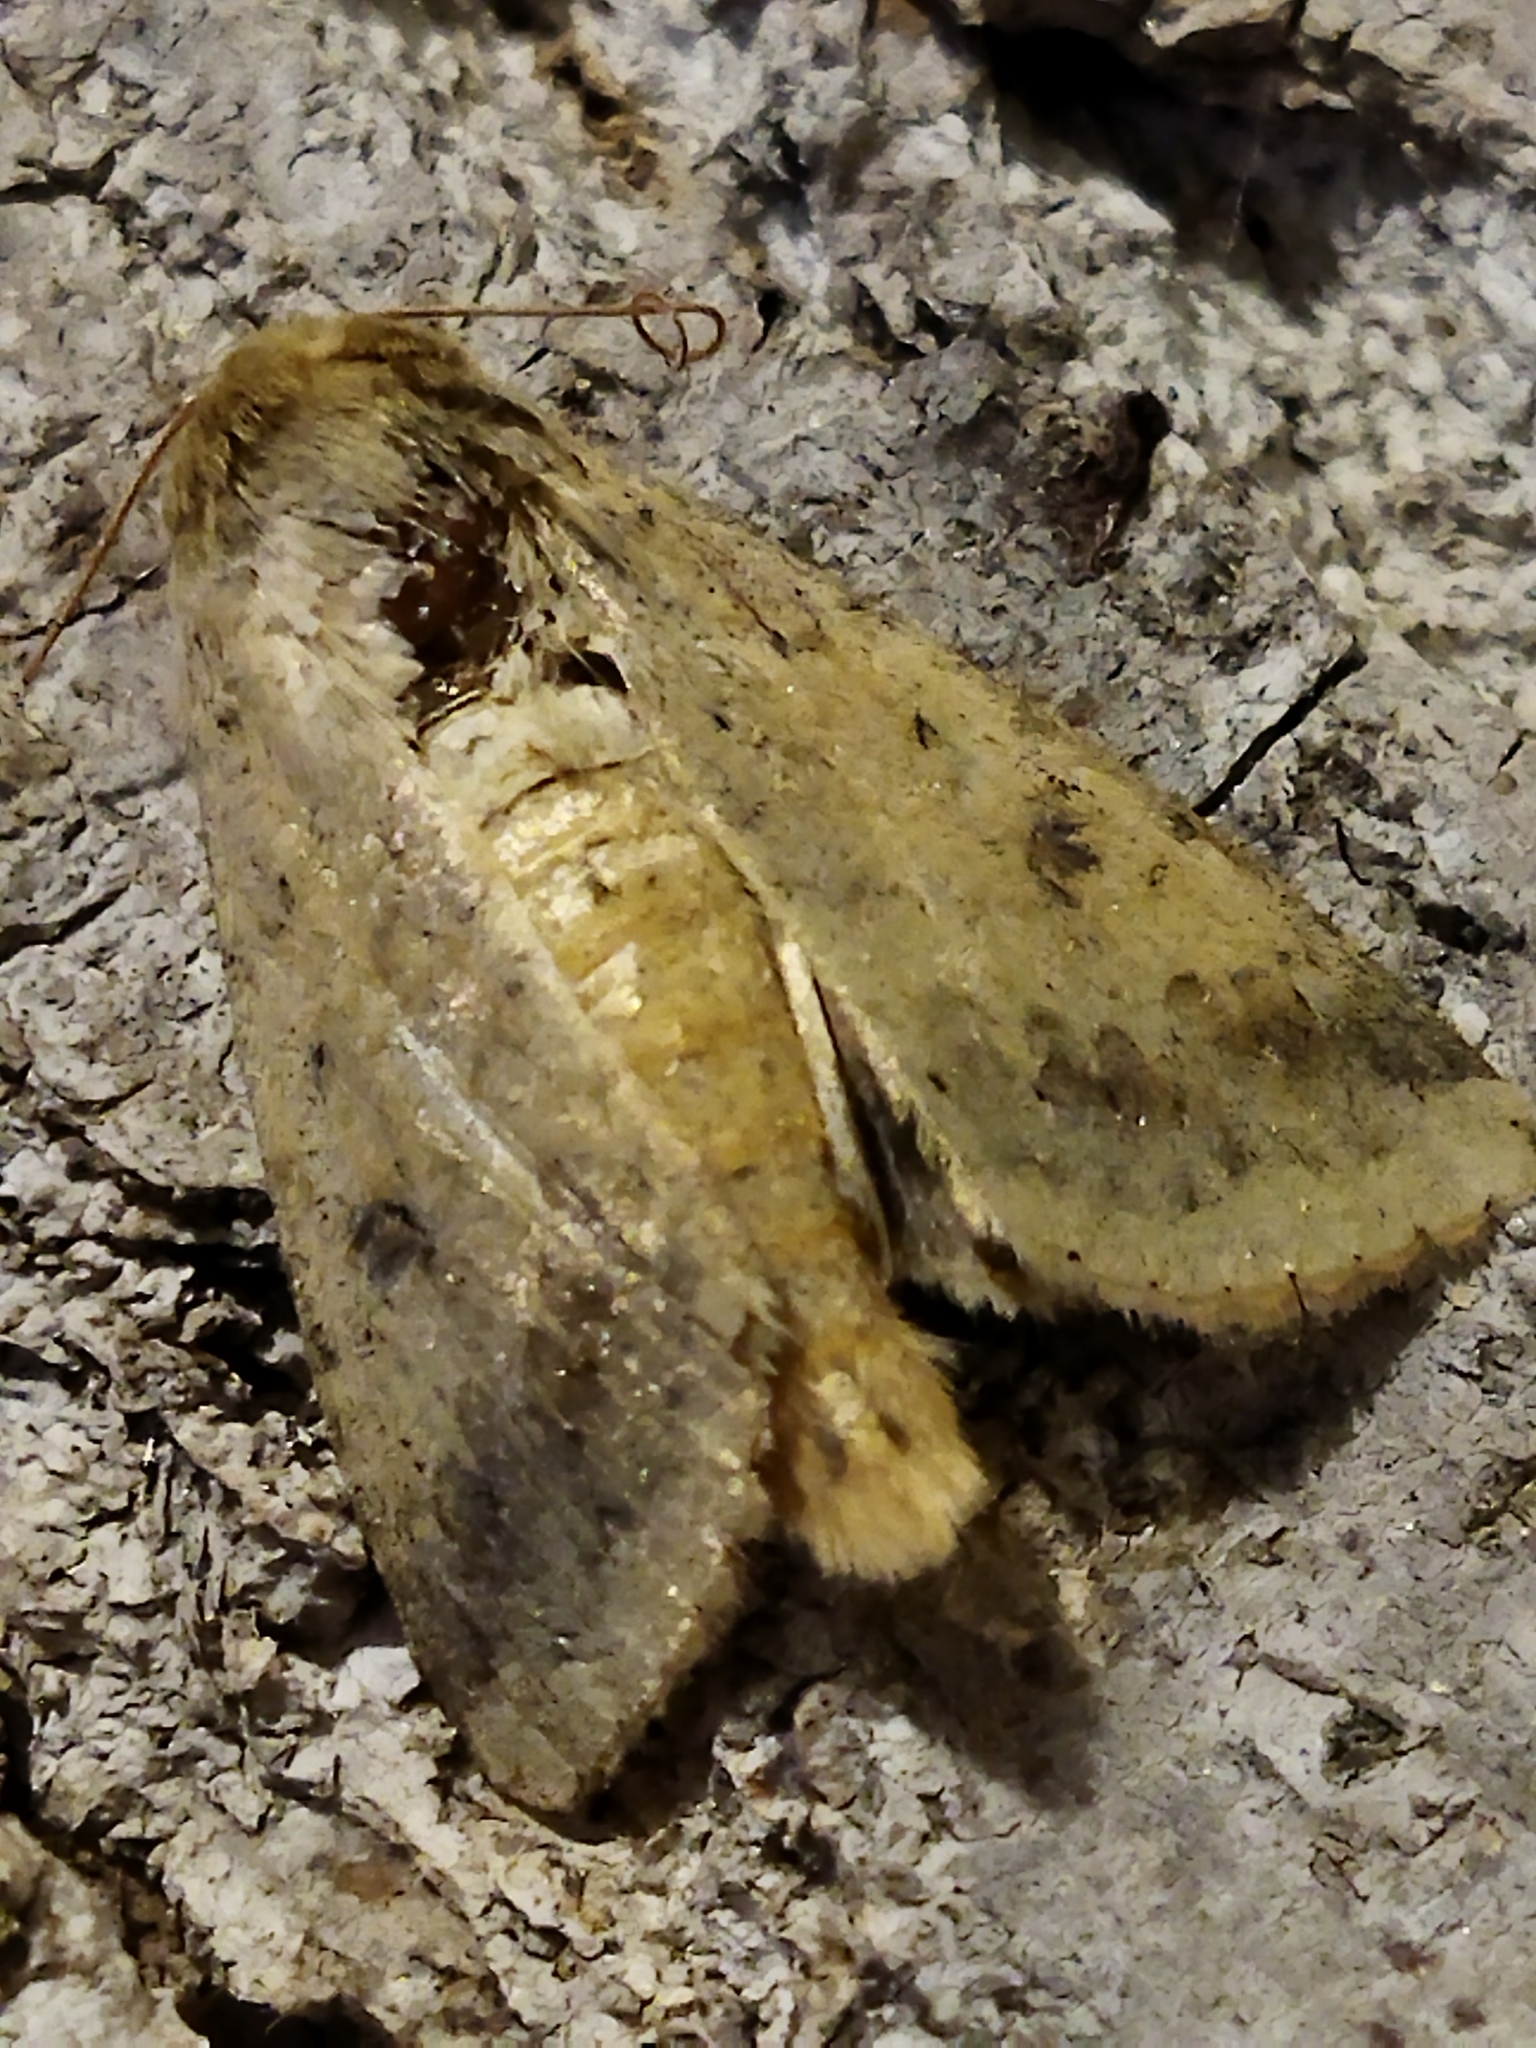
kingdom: Animalia
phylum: Arthropoda
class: Insecta
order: Lepidoptera
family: Noctuidae
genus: Helicoverpa
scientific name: Helicoverpa armigera
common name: Cotton bollworm
